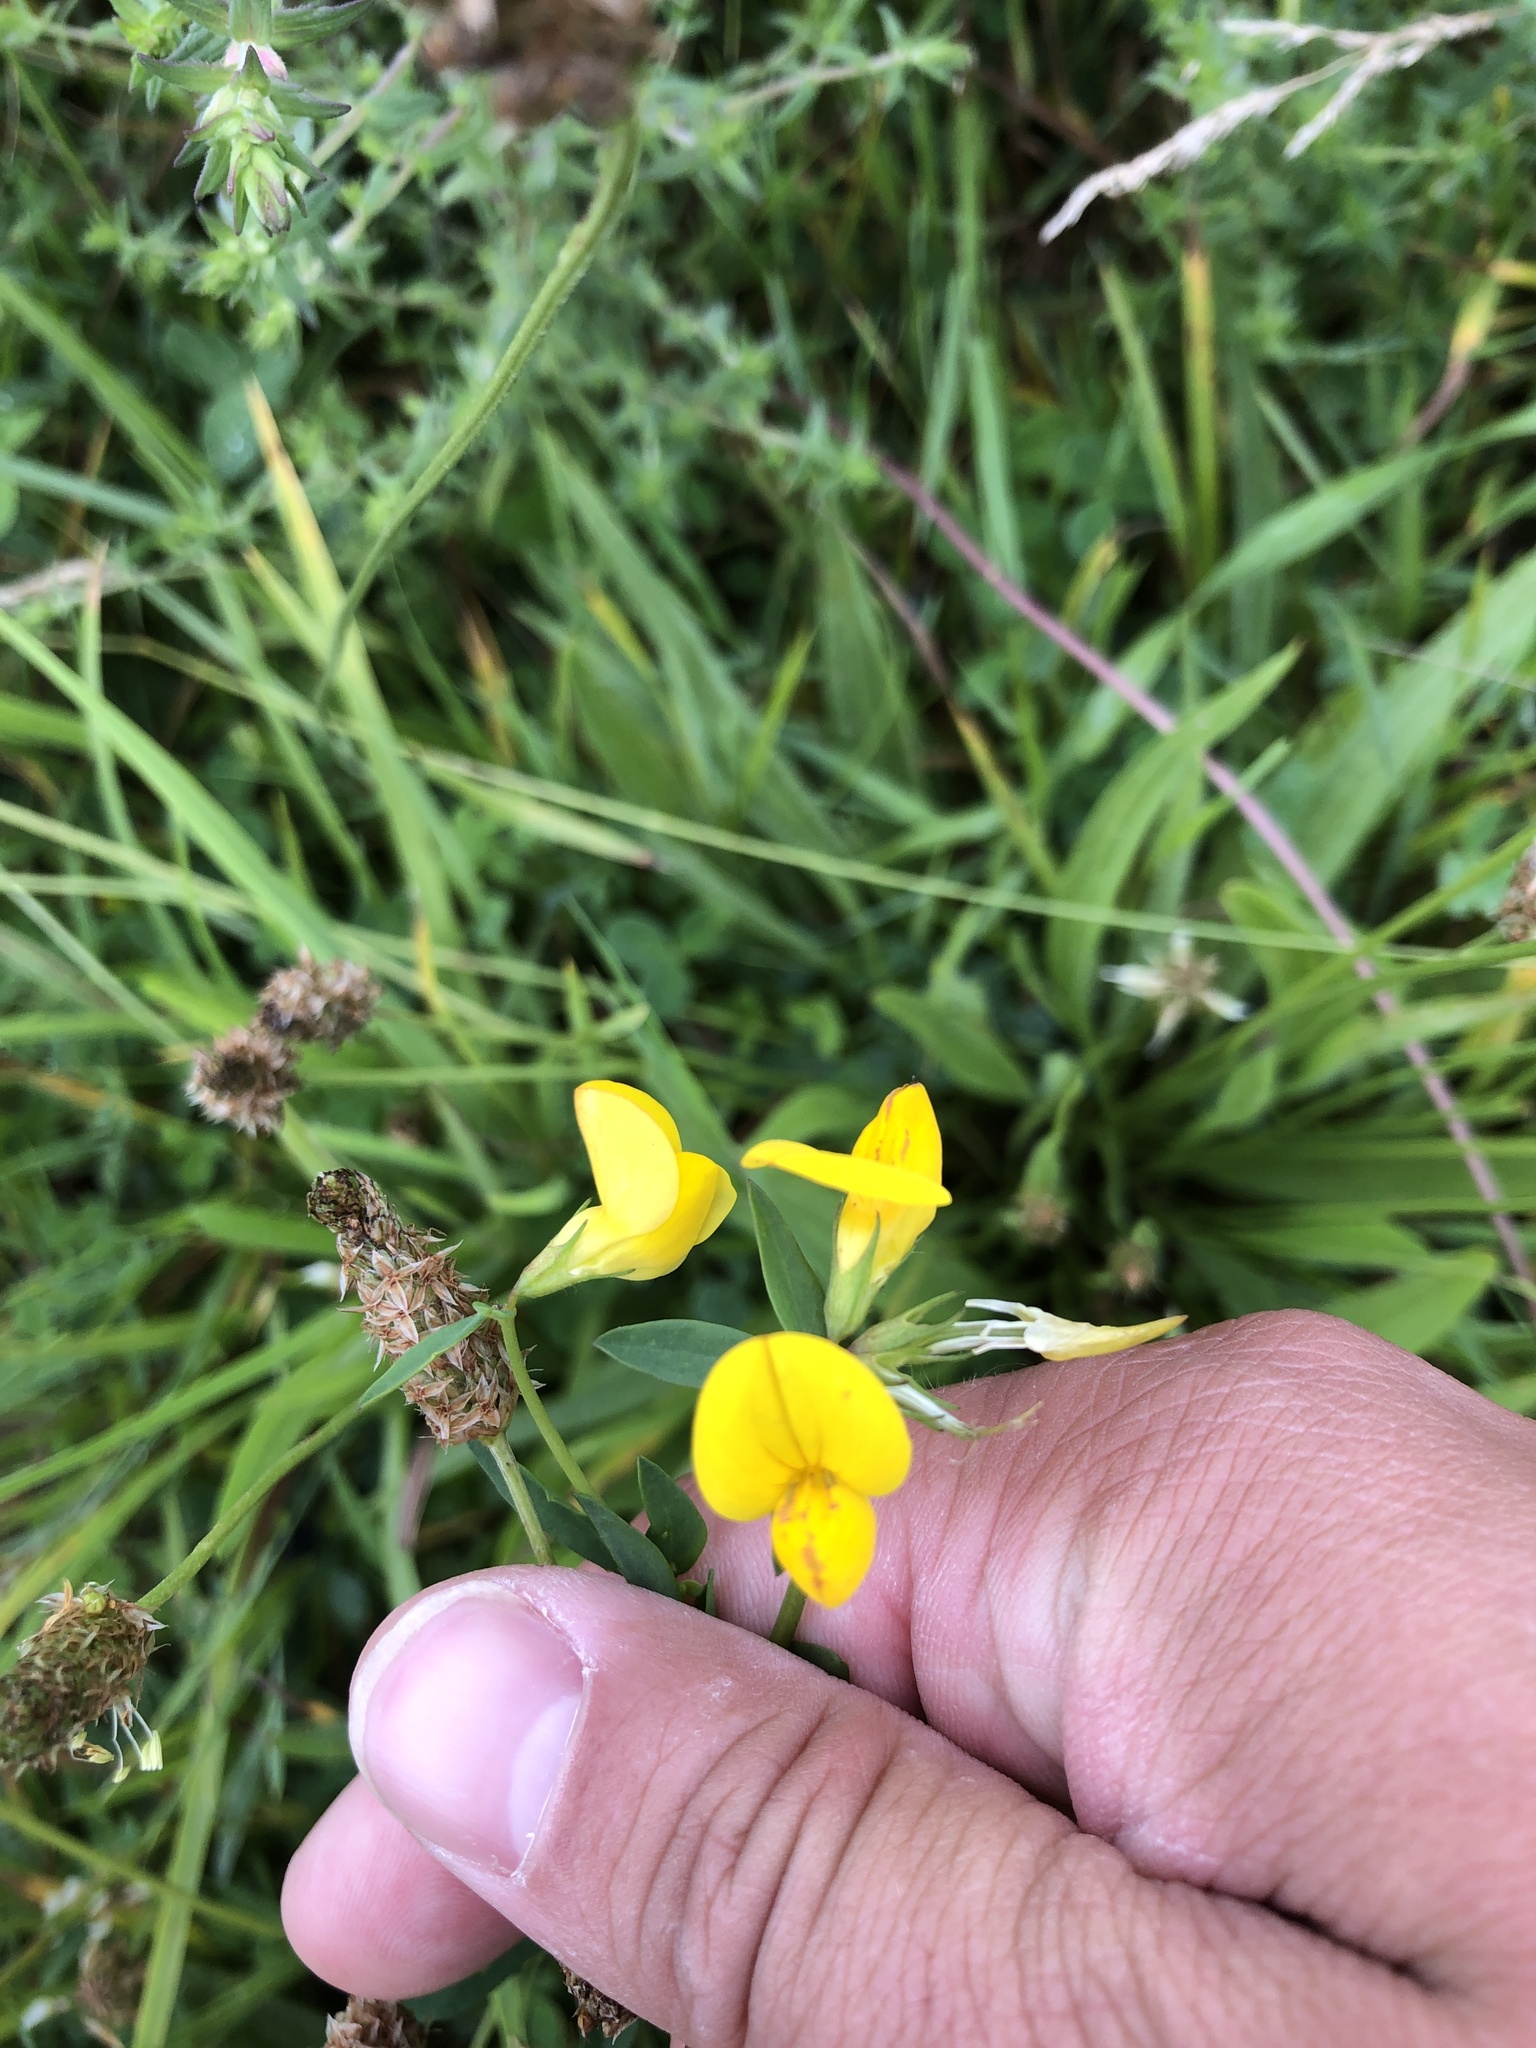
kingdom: Plantae
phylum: Tracheophyta
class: Magnoliopsida
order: Fabales
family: Fabaceae
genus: Lotus
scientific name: Lotus corniculatus
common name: Common bird's-foot-trefoil
